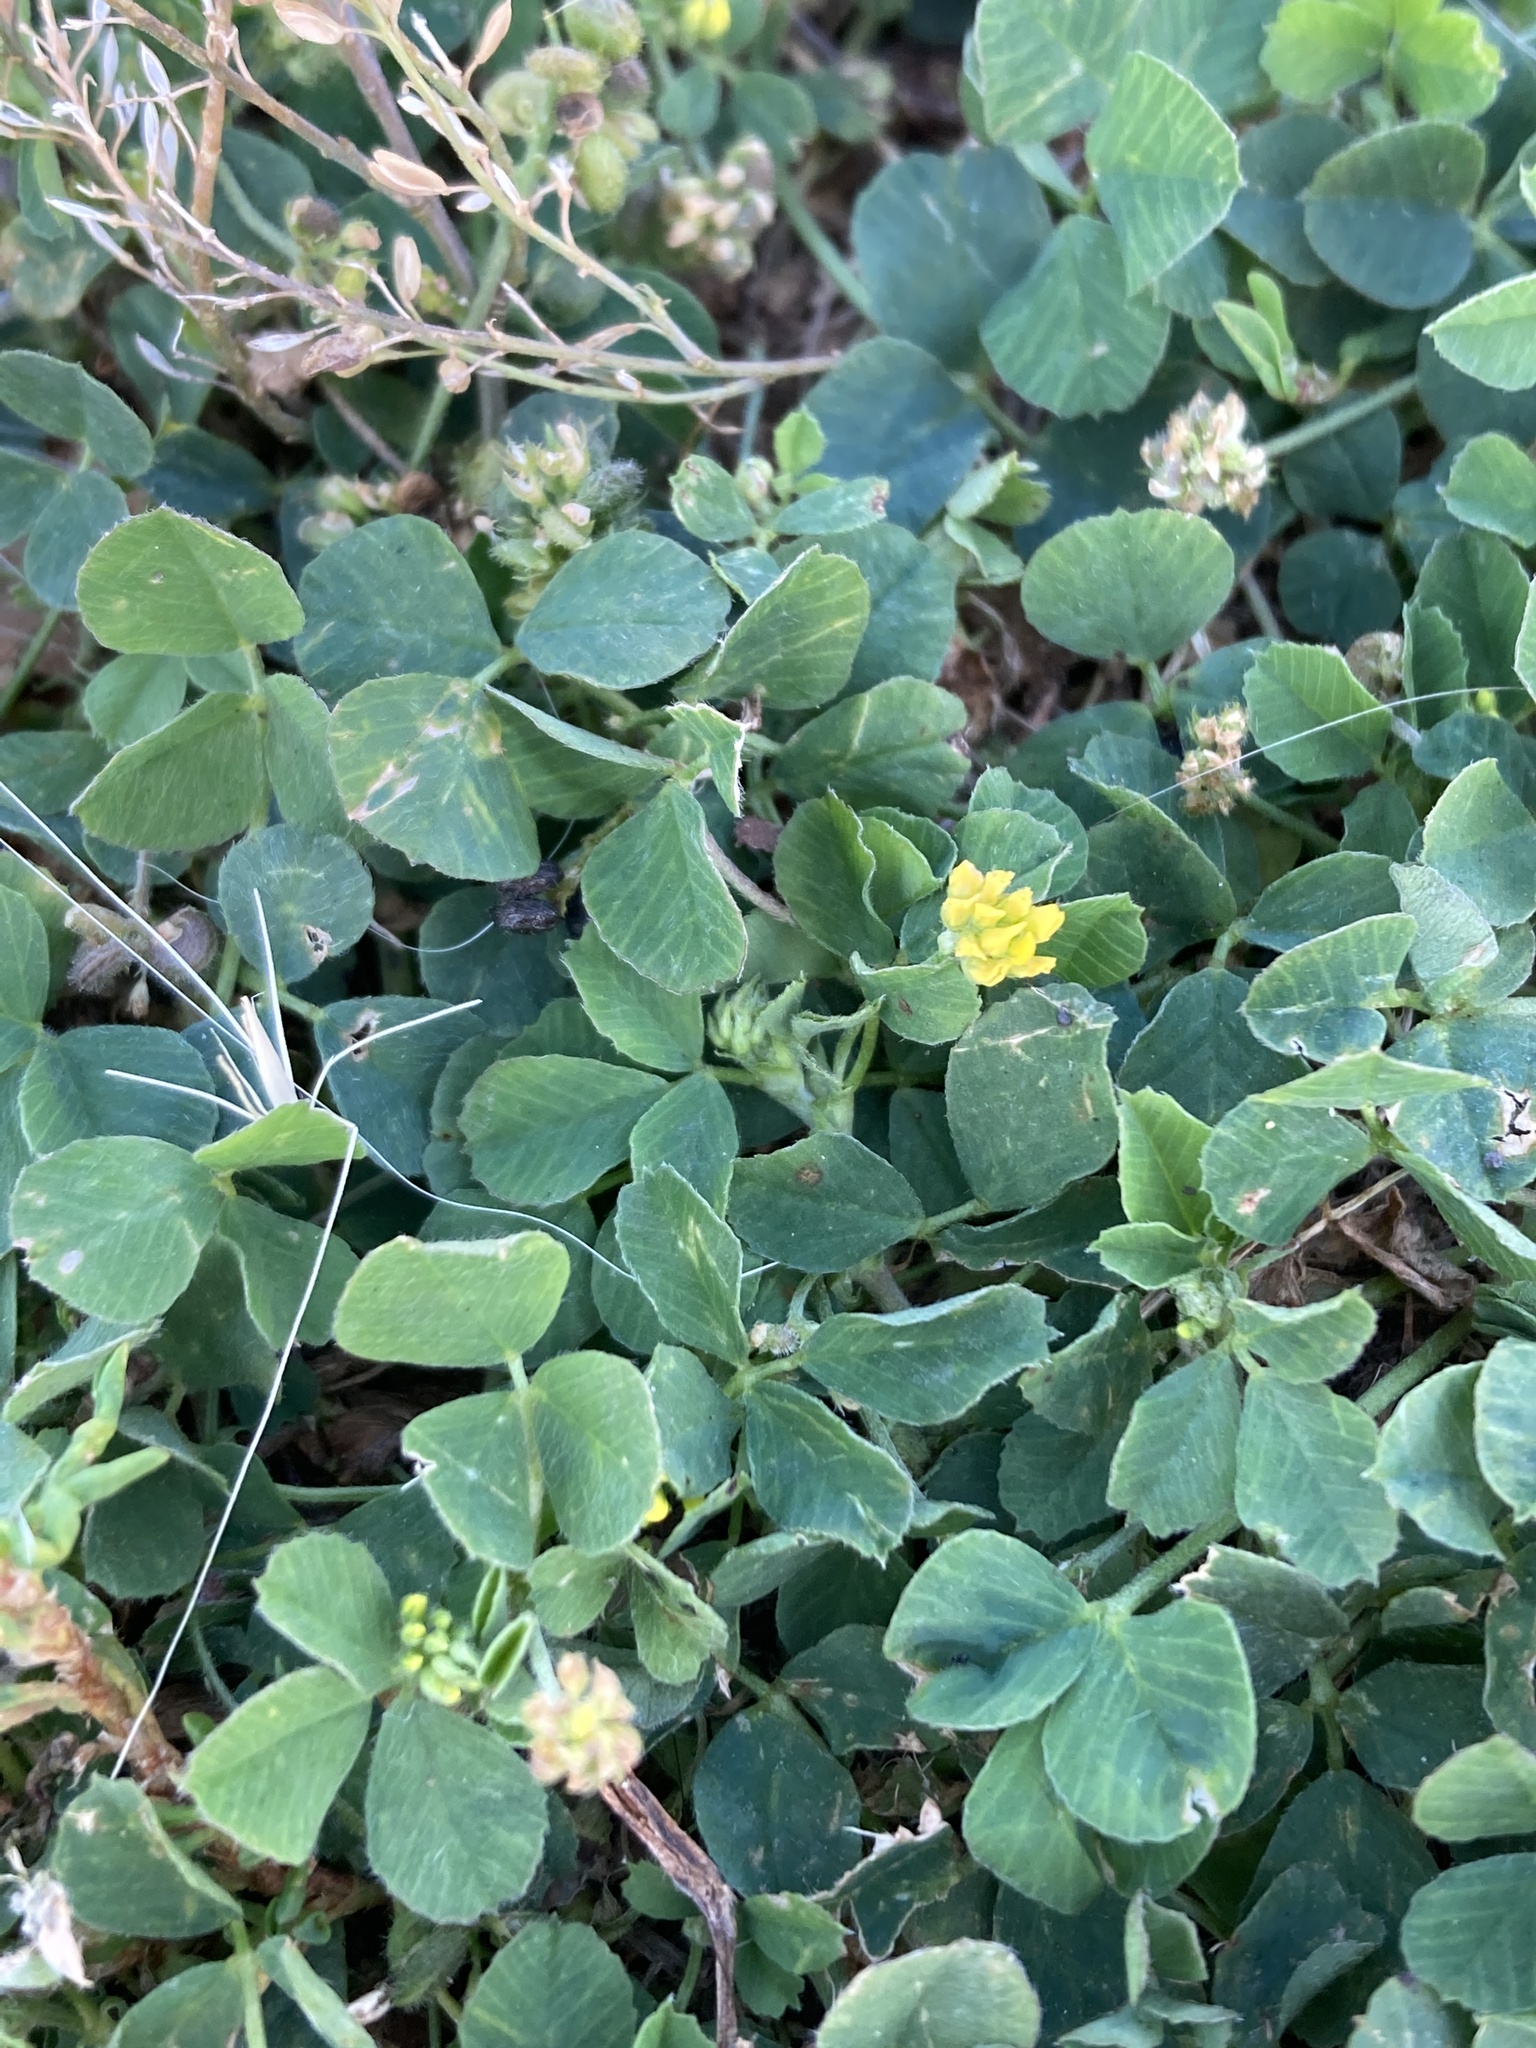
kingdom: Plantae
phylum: Tracheophyta
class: Magnoliopsida
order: Fabales
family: Fabaceae
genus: Medicago
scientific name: Medicago lupulina
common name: Black medick
